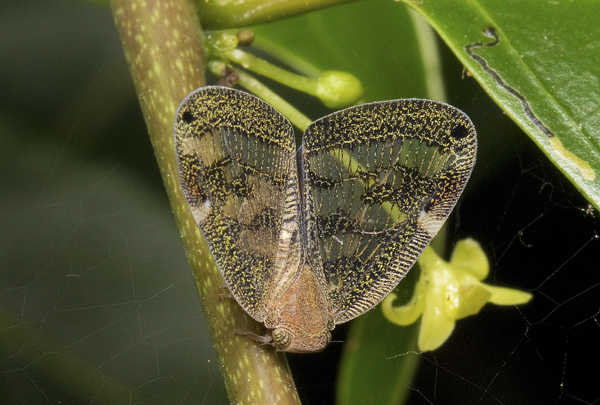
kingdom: Animalia
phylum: Arthropoda
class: Insecta
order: Hemiptera
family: Ricaniidae
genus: Scolypopa
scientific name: Scolypopa australis
